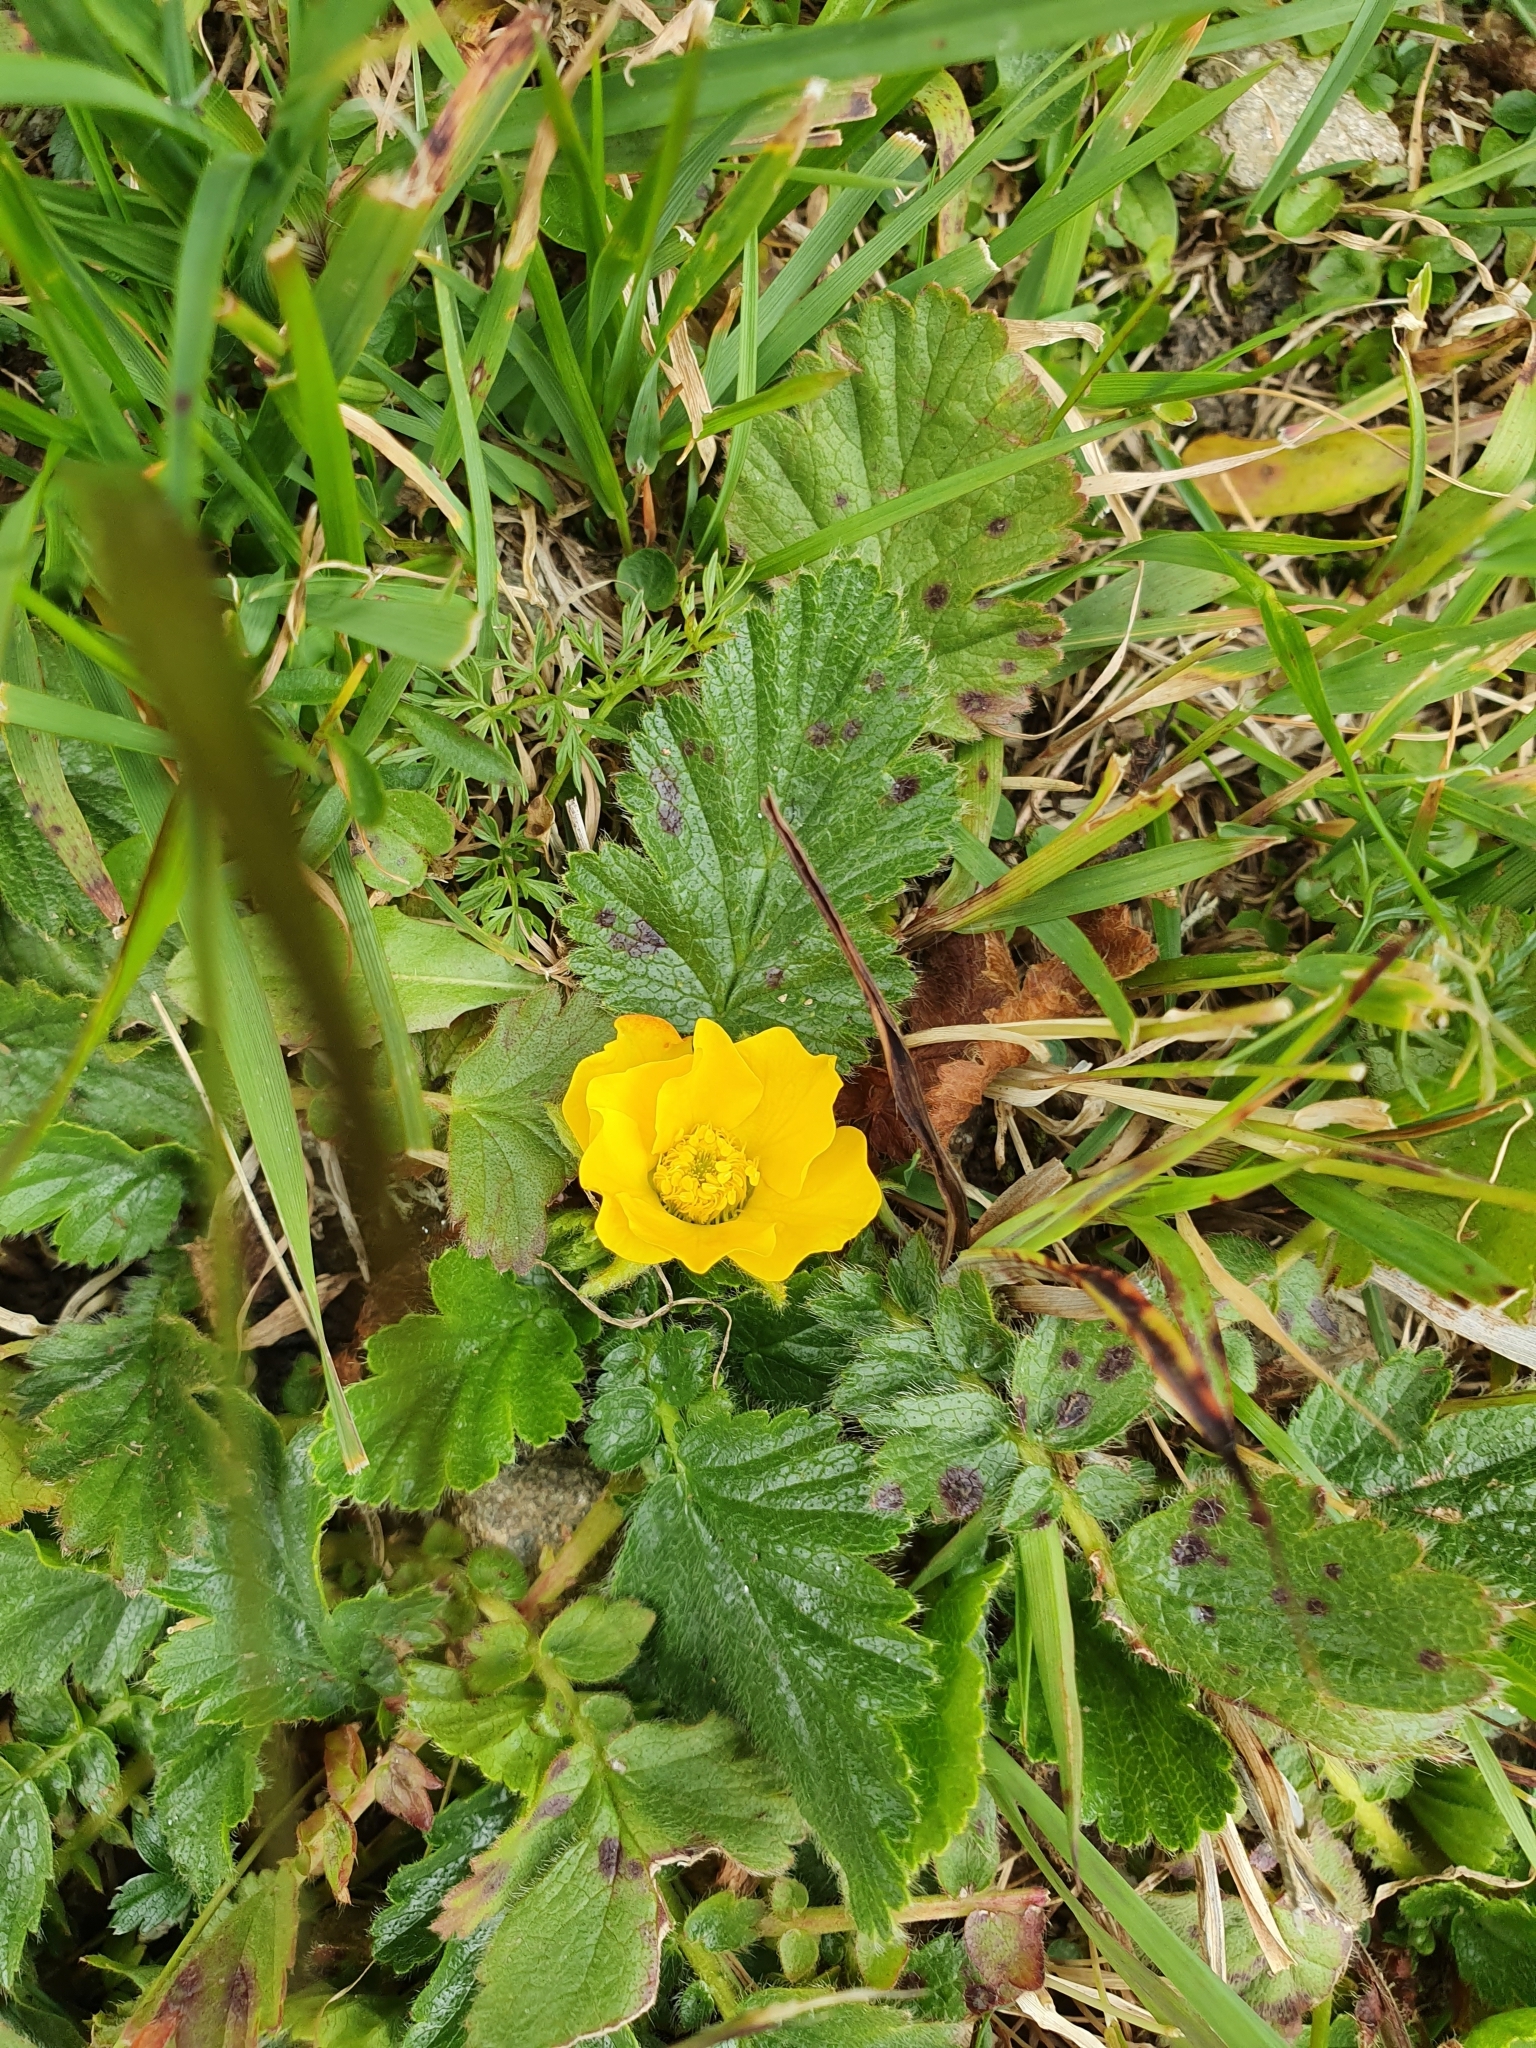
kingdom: Plantae
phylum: Tracheophyta
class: Magnoliopsida
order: Rosales
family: Rosaceae
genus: Geum
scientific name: Geum montanum
